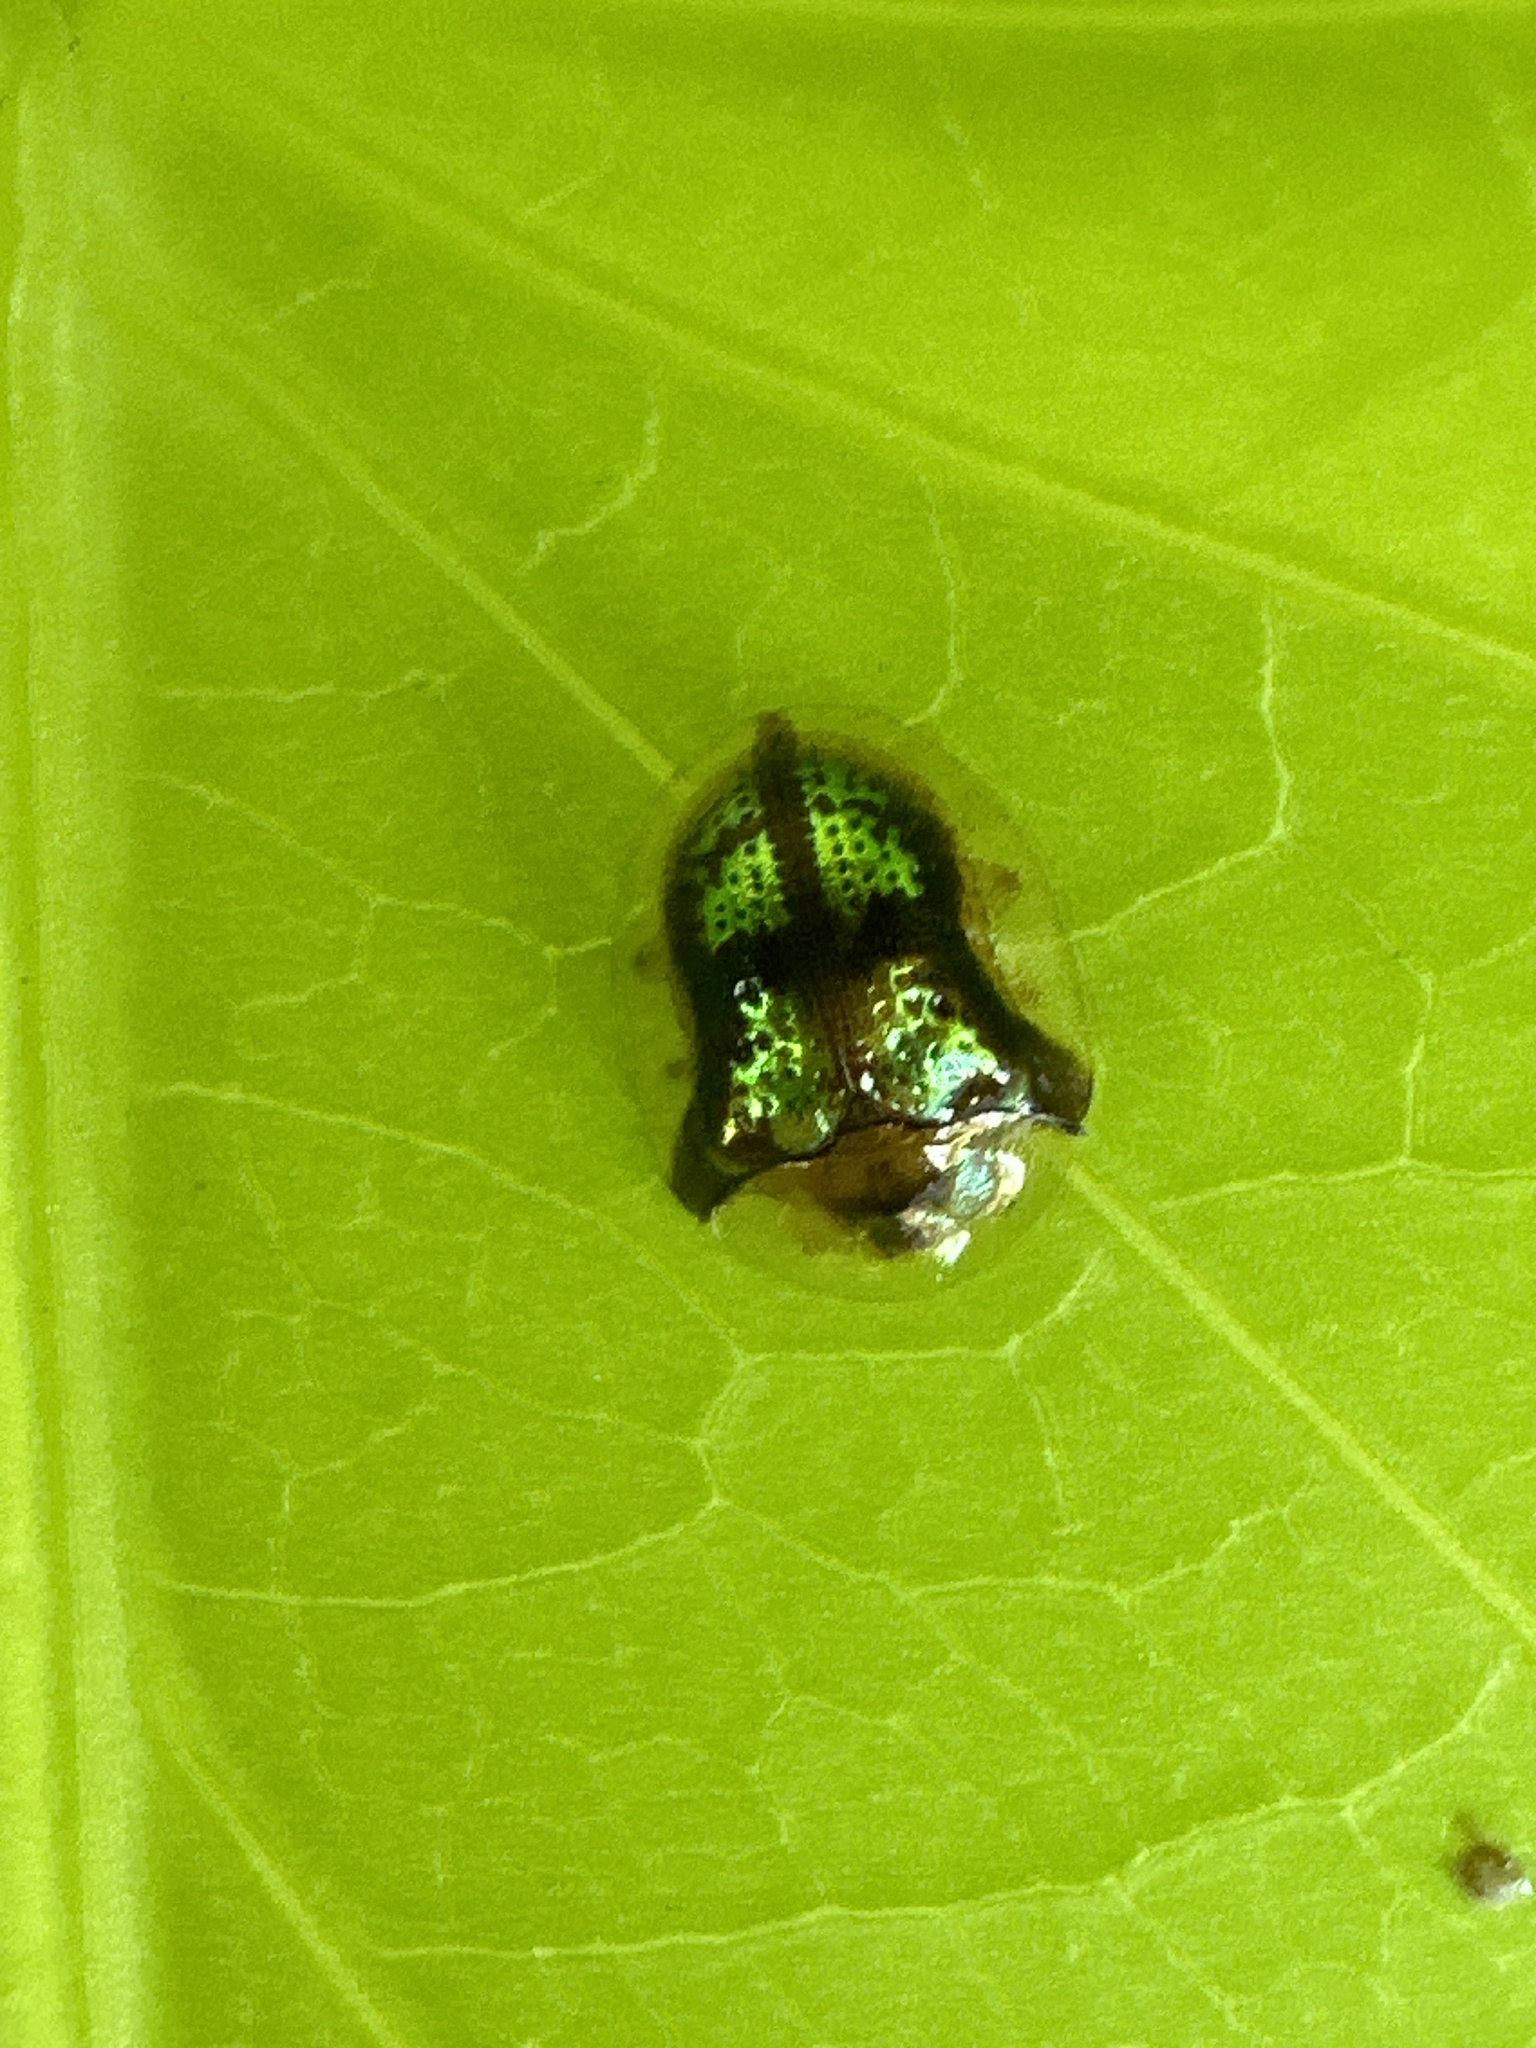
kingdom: Animalia
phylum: Arthropoda
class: Insecta
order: Coleoptera
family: Chrysomelidae
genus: Deloyala
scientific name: Deloyala guttata
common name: Mottled tortoise beetle
